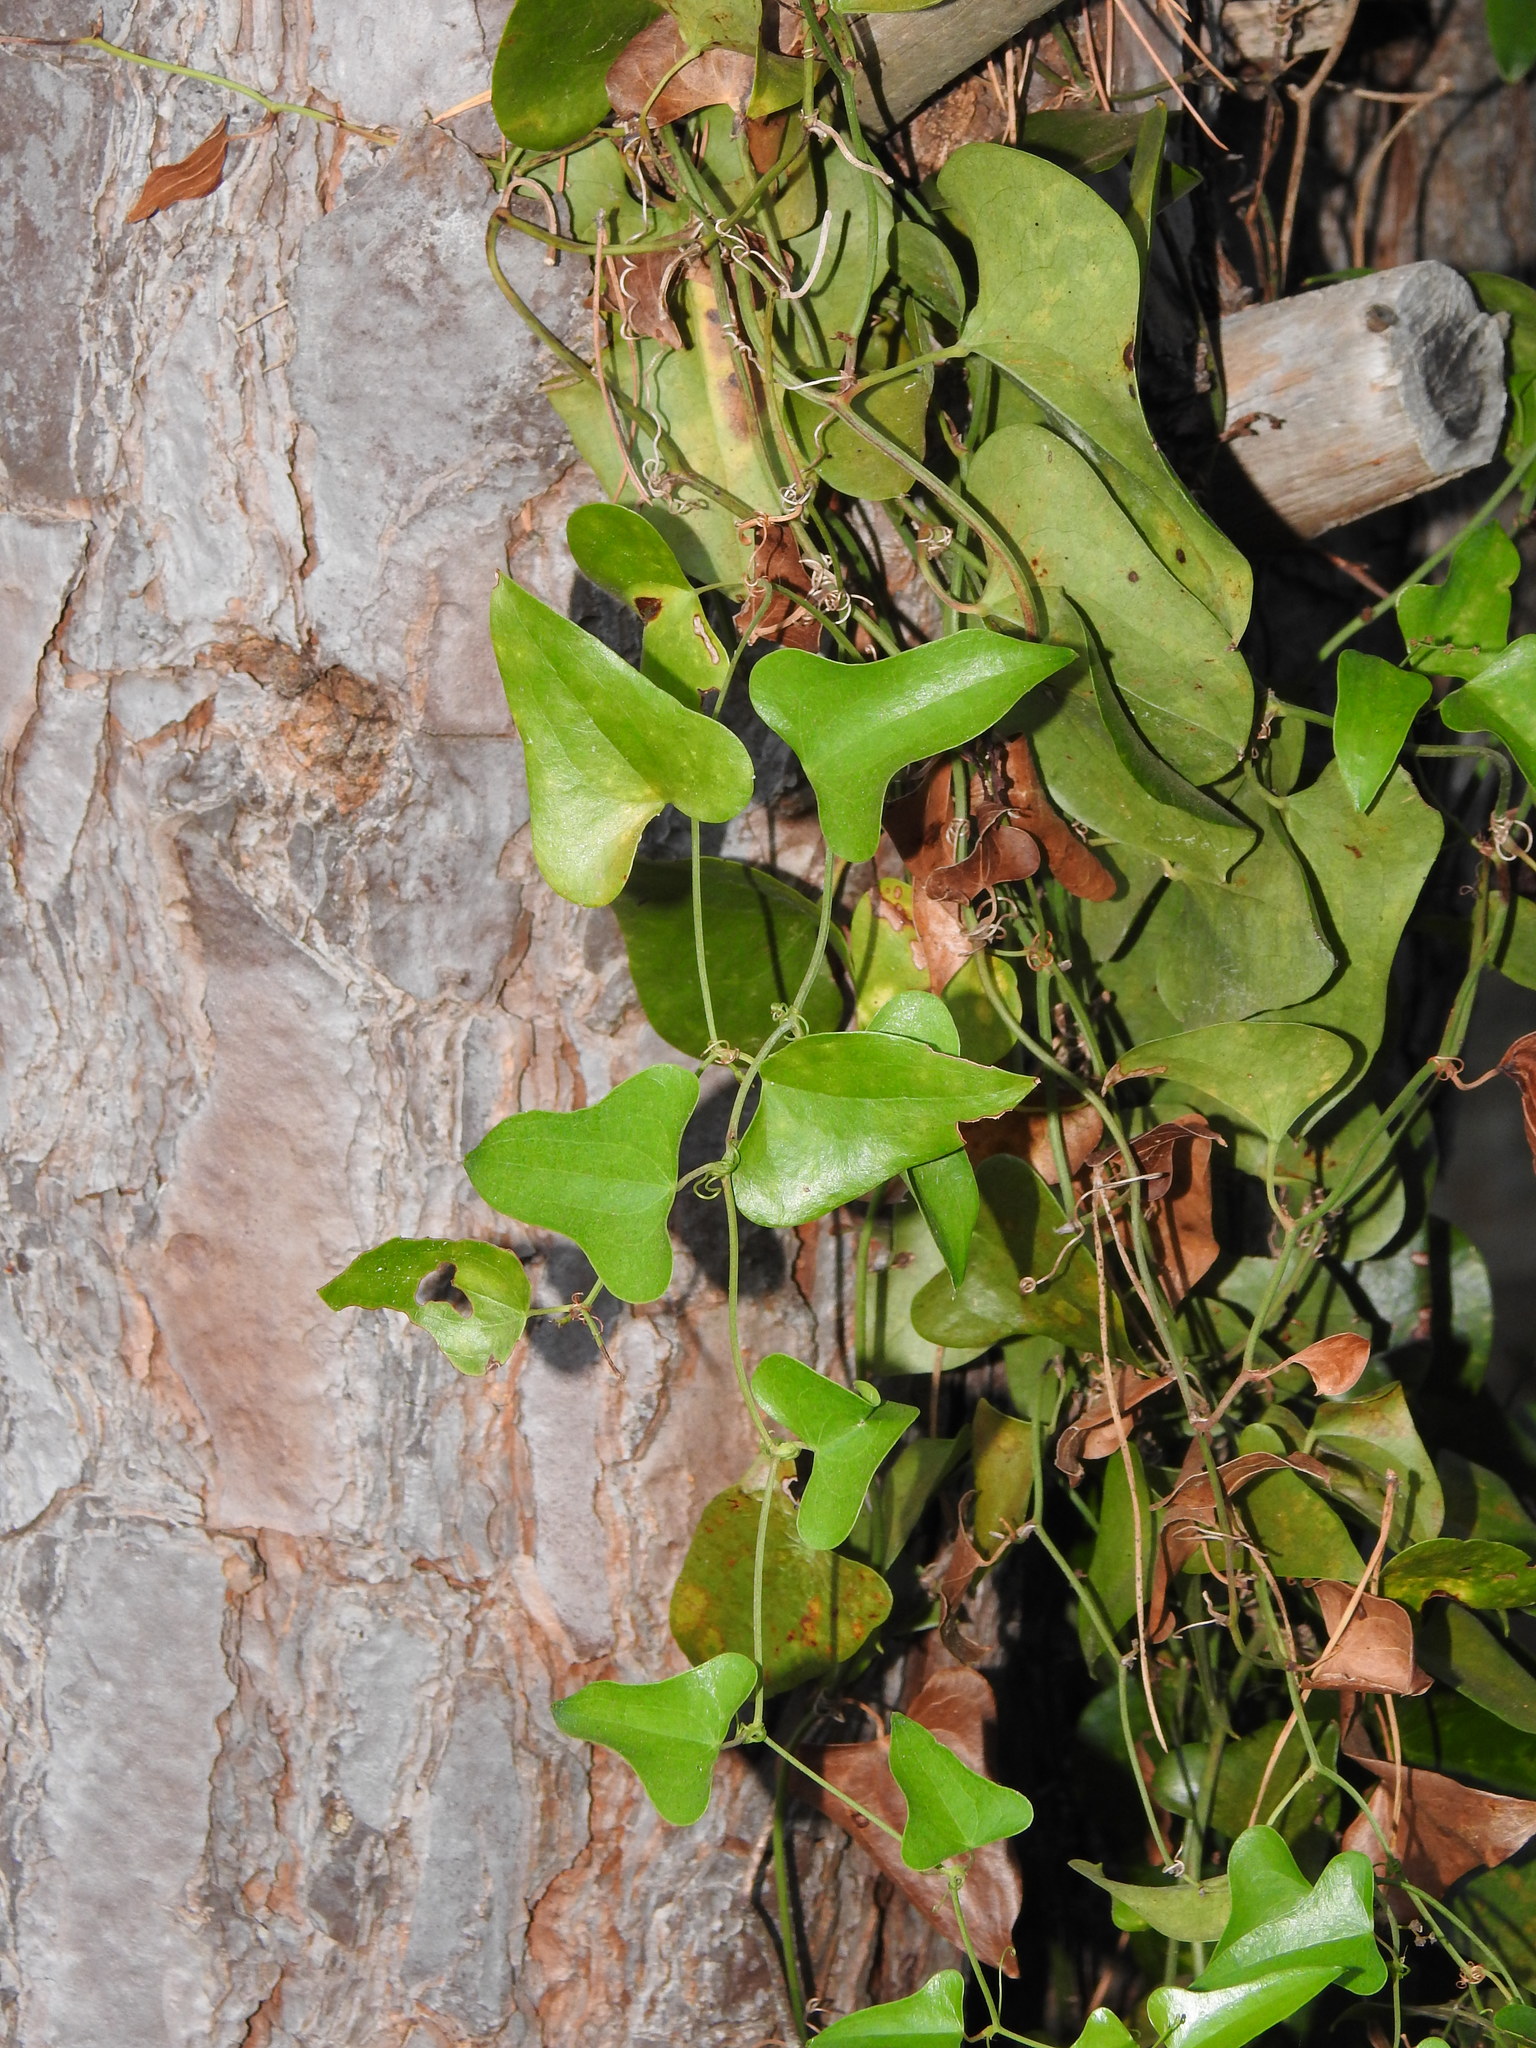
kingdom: Plantae
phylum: Tracheophyta
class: Liliopsida
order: Liliales
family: Smilacaceae
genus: Smilax
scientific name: Smilax aspera
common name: Common smilax
